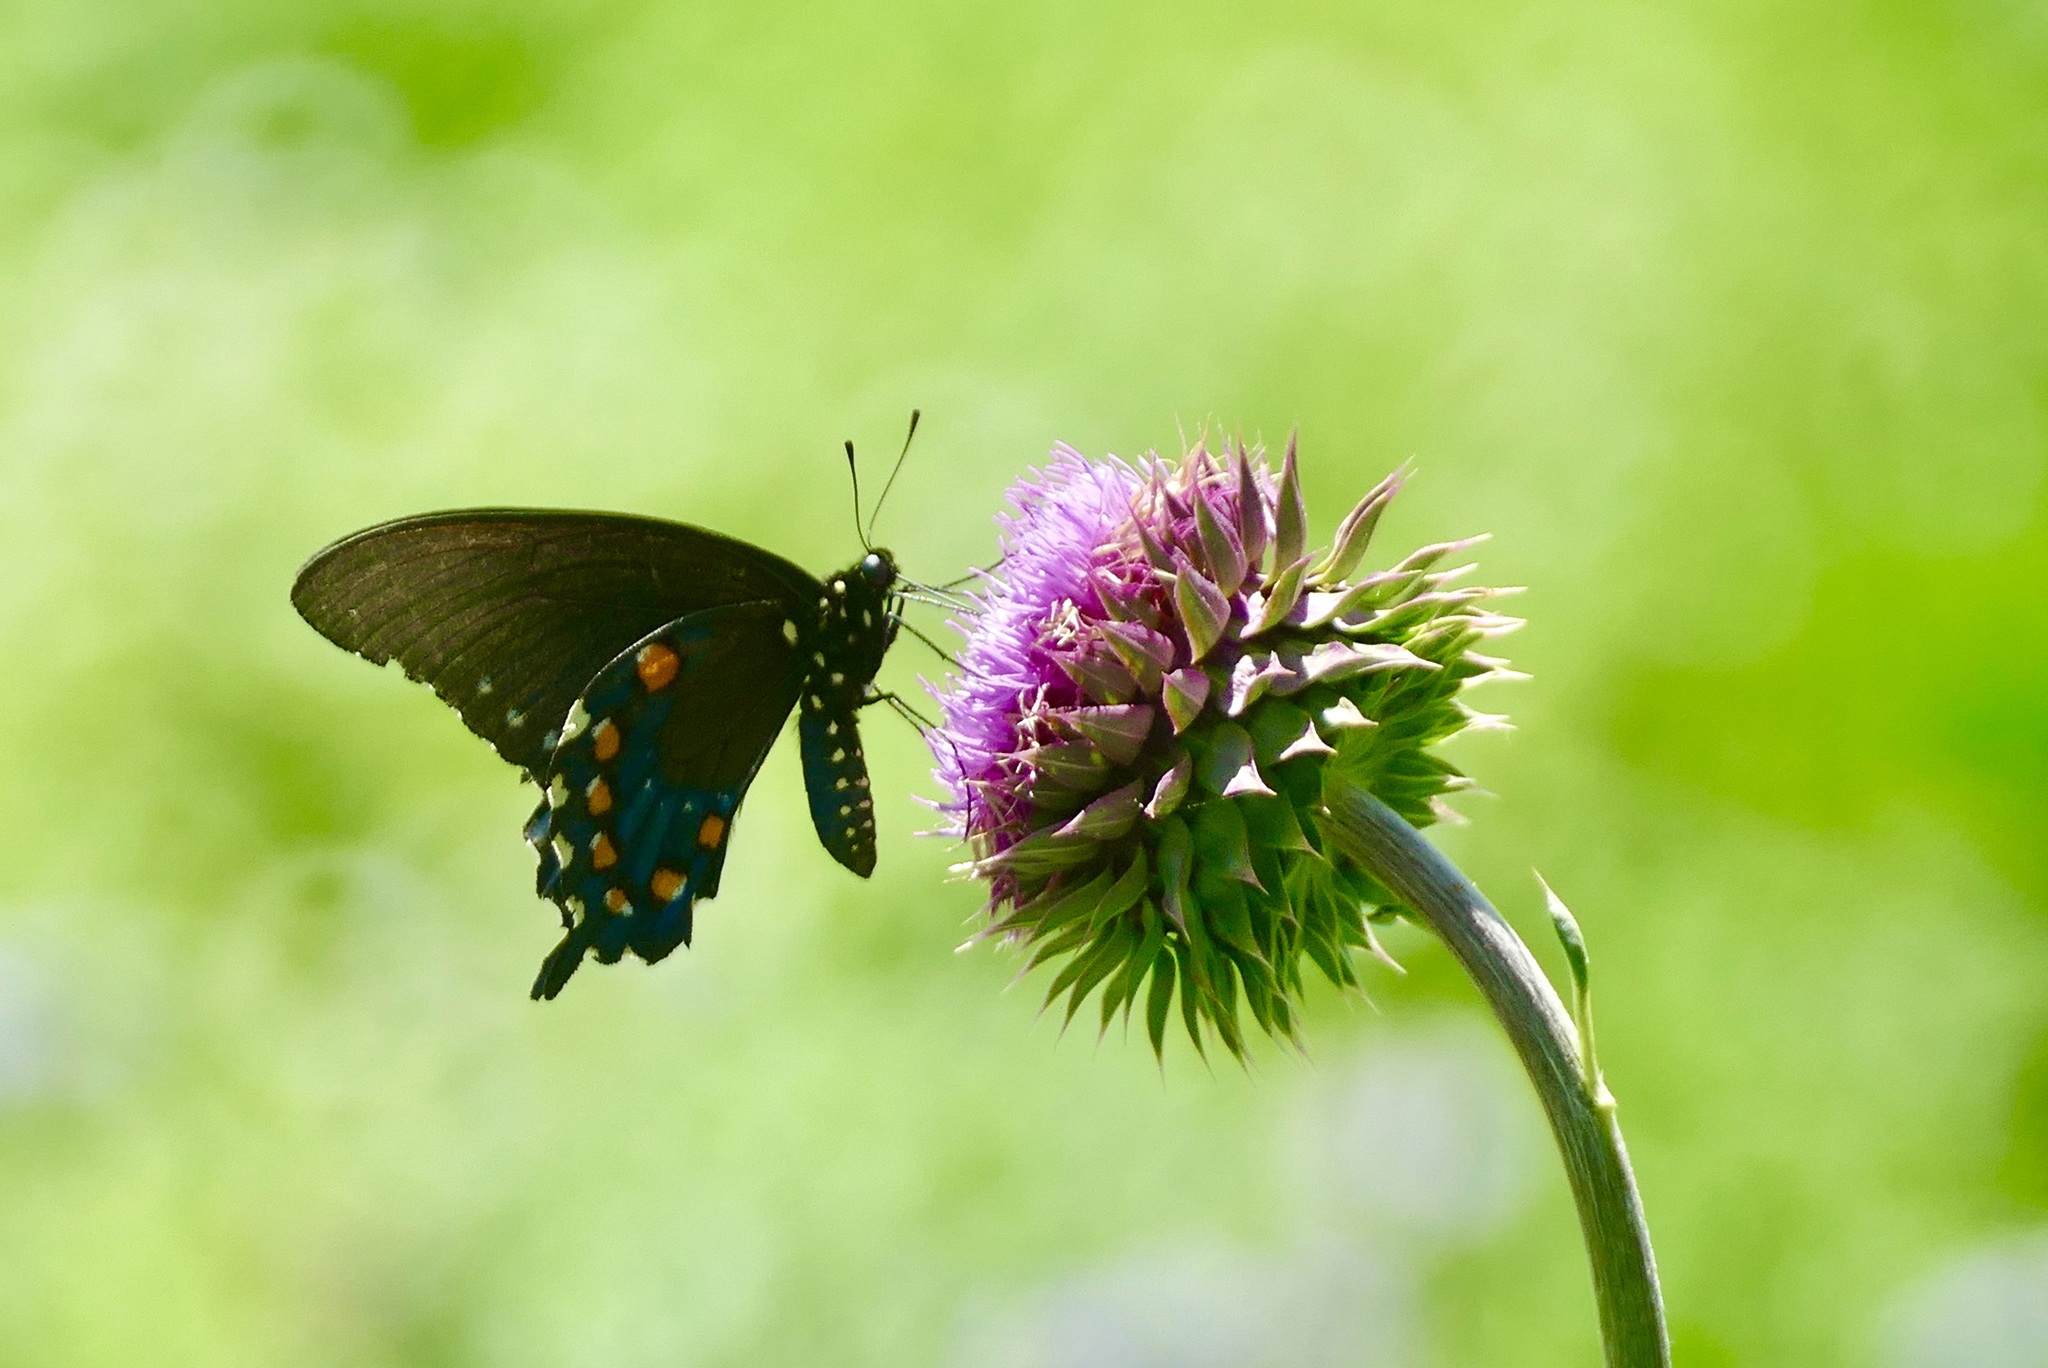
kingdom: Animalia
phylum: Arthropoda
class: Insecta
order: Lepidoptera
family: Papilionidae
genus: Battus
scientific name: Battus philenor
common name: Pipevine swallowtail
